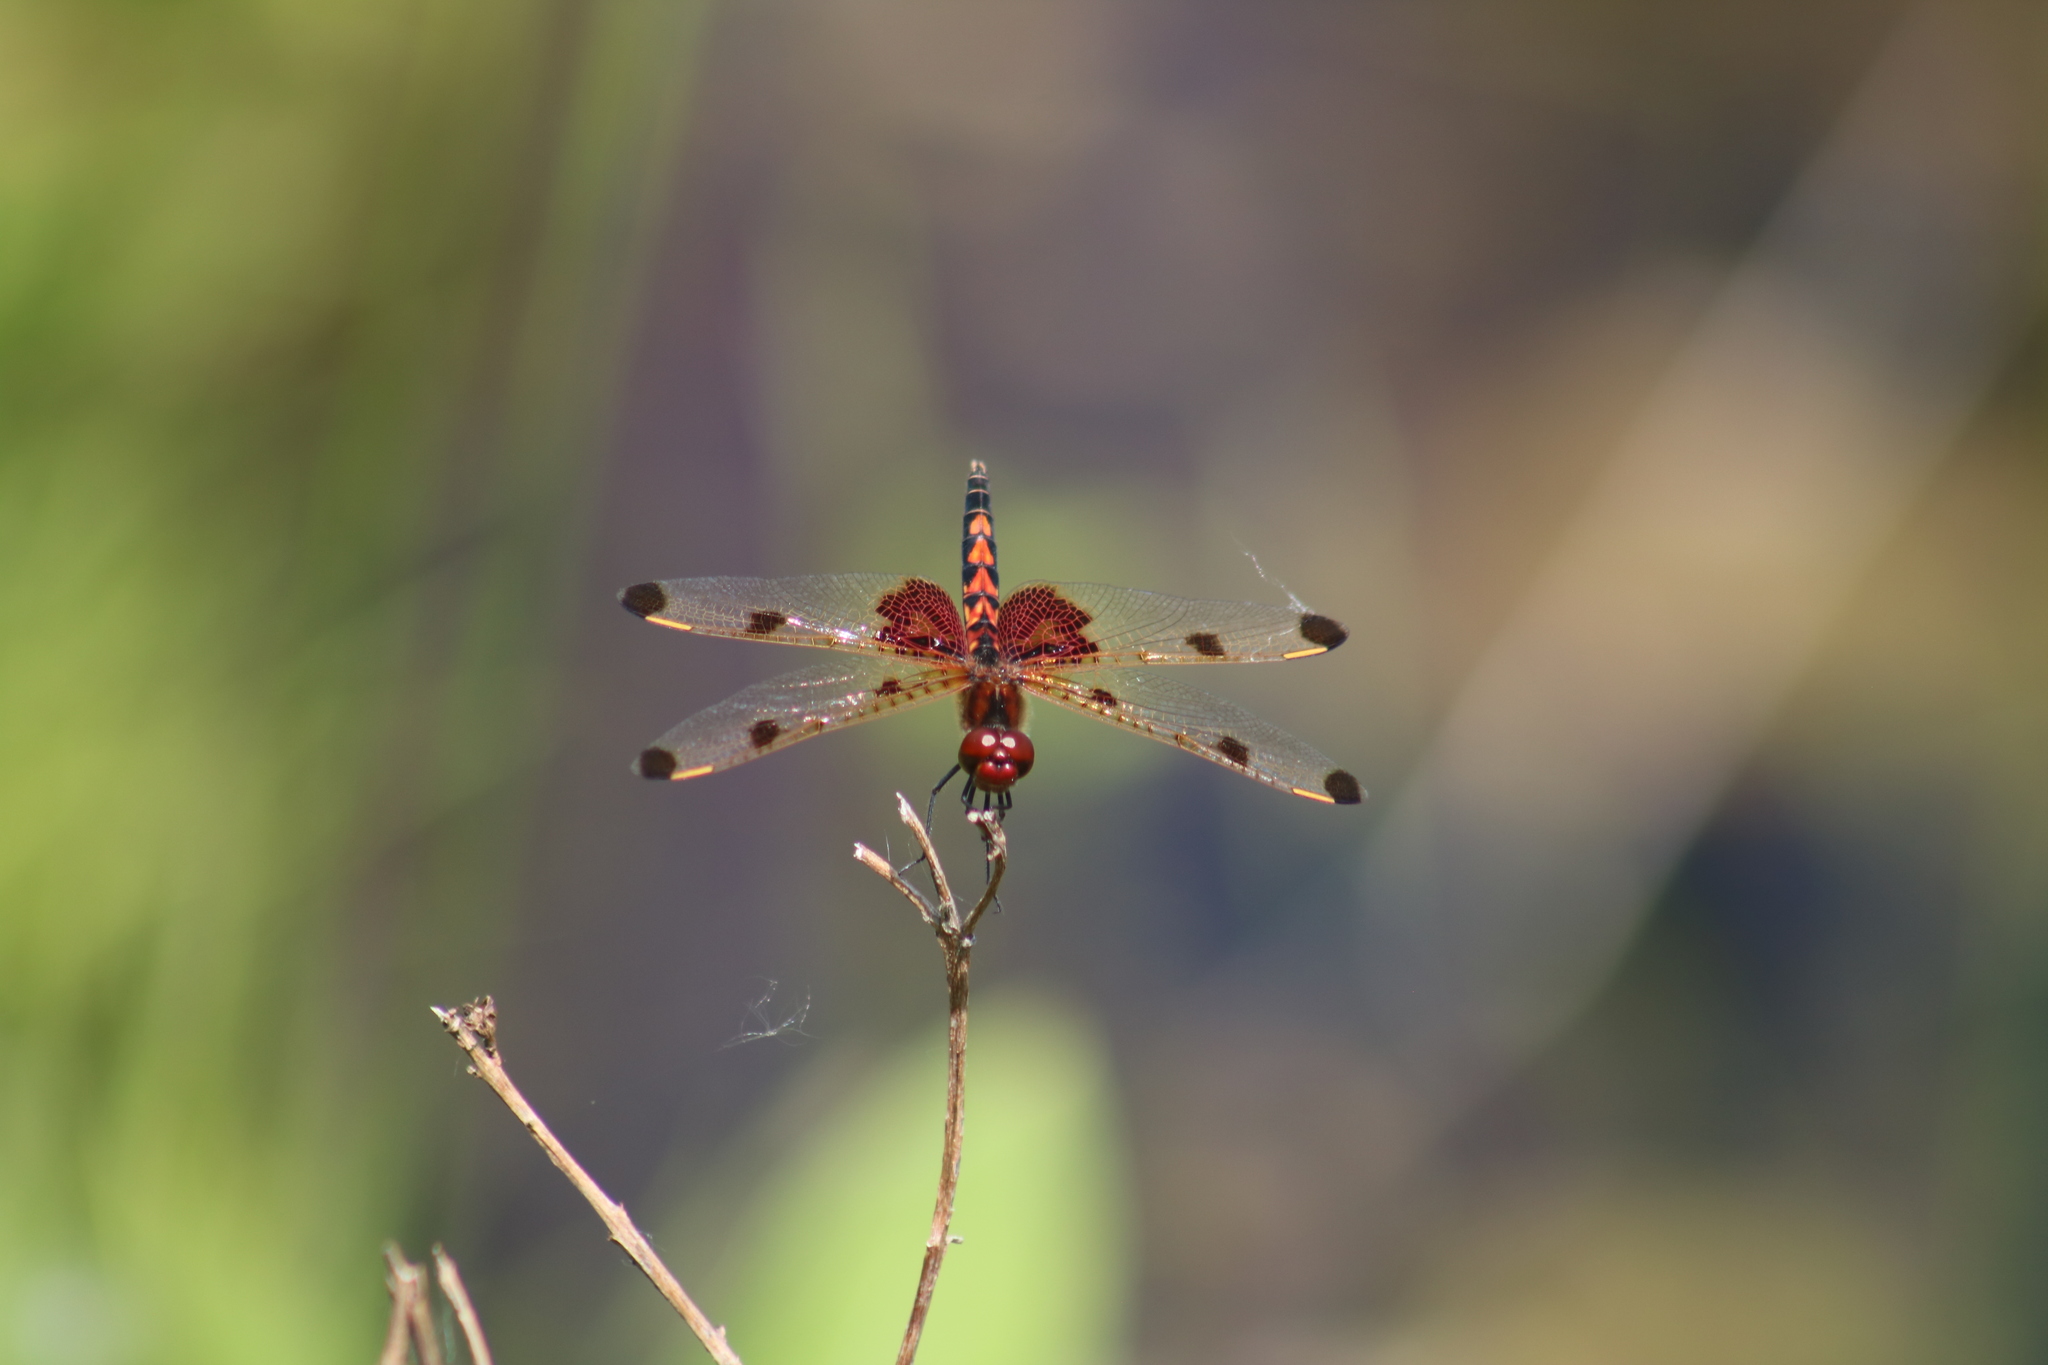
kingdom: Animalia
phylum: Arthropoda
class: Insecta
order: Odonata
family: Libellulidae
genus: Celithemis
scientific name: Celithemis elisa
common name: Calico pennant
